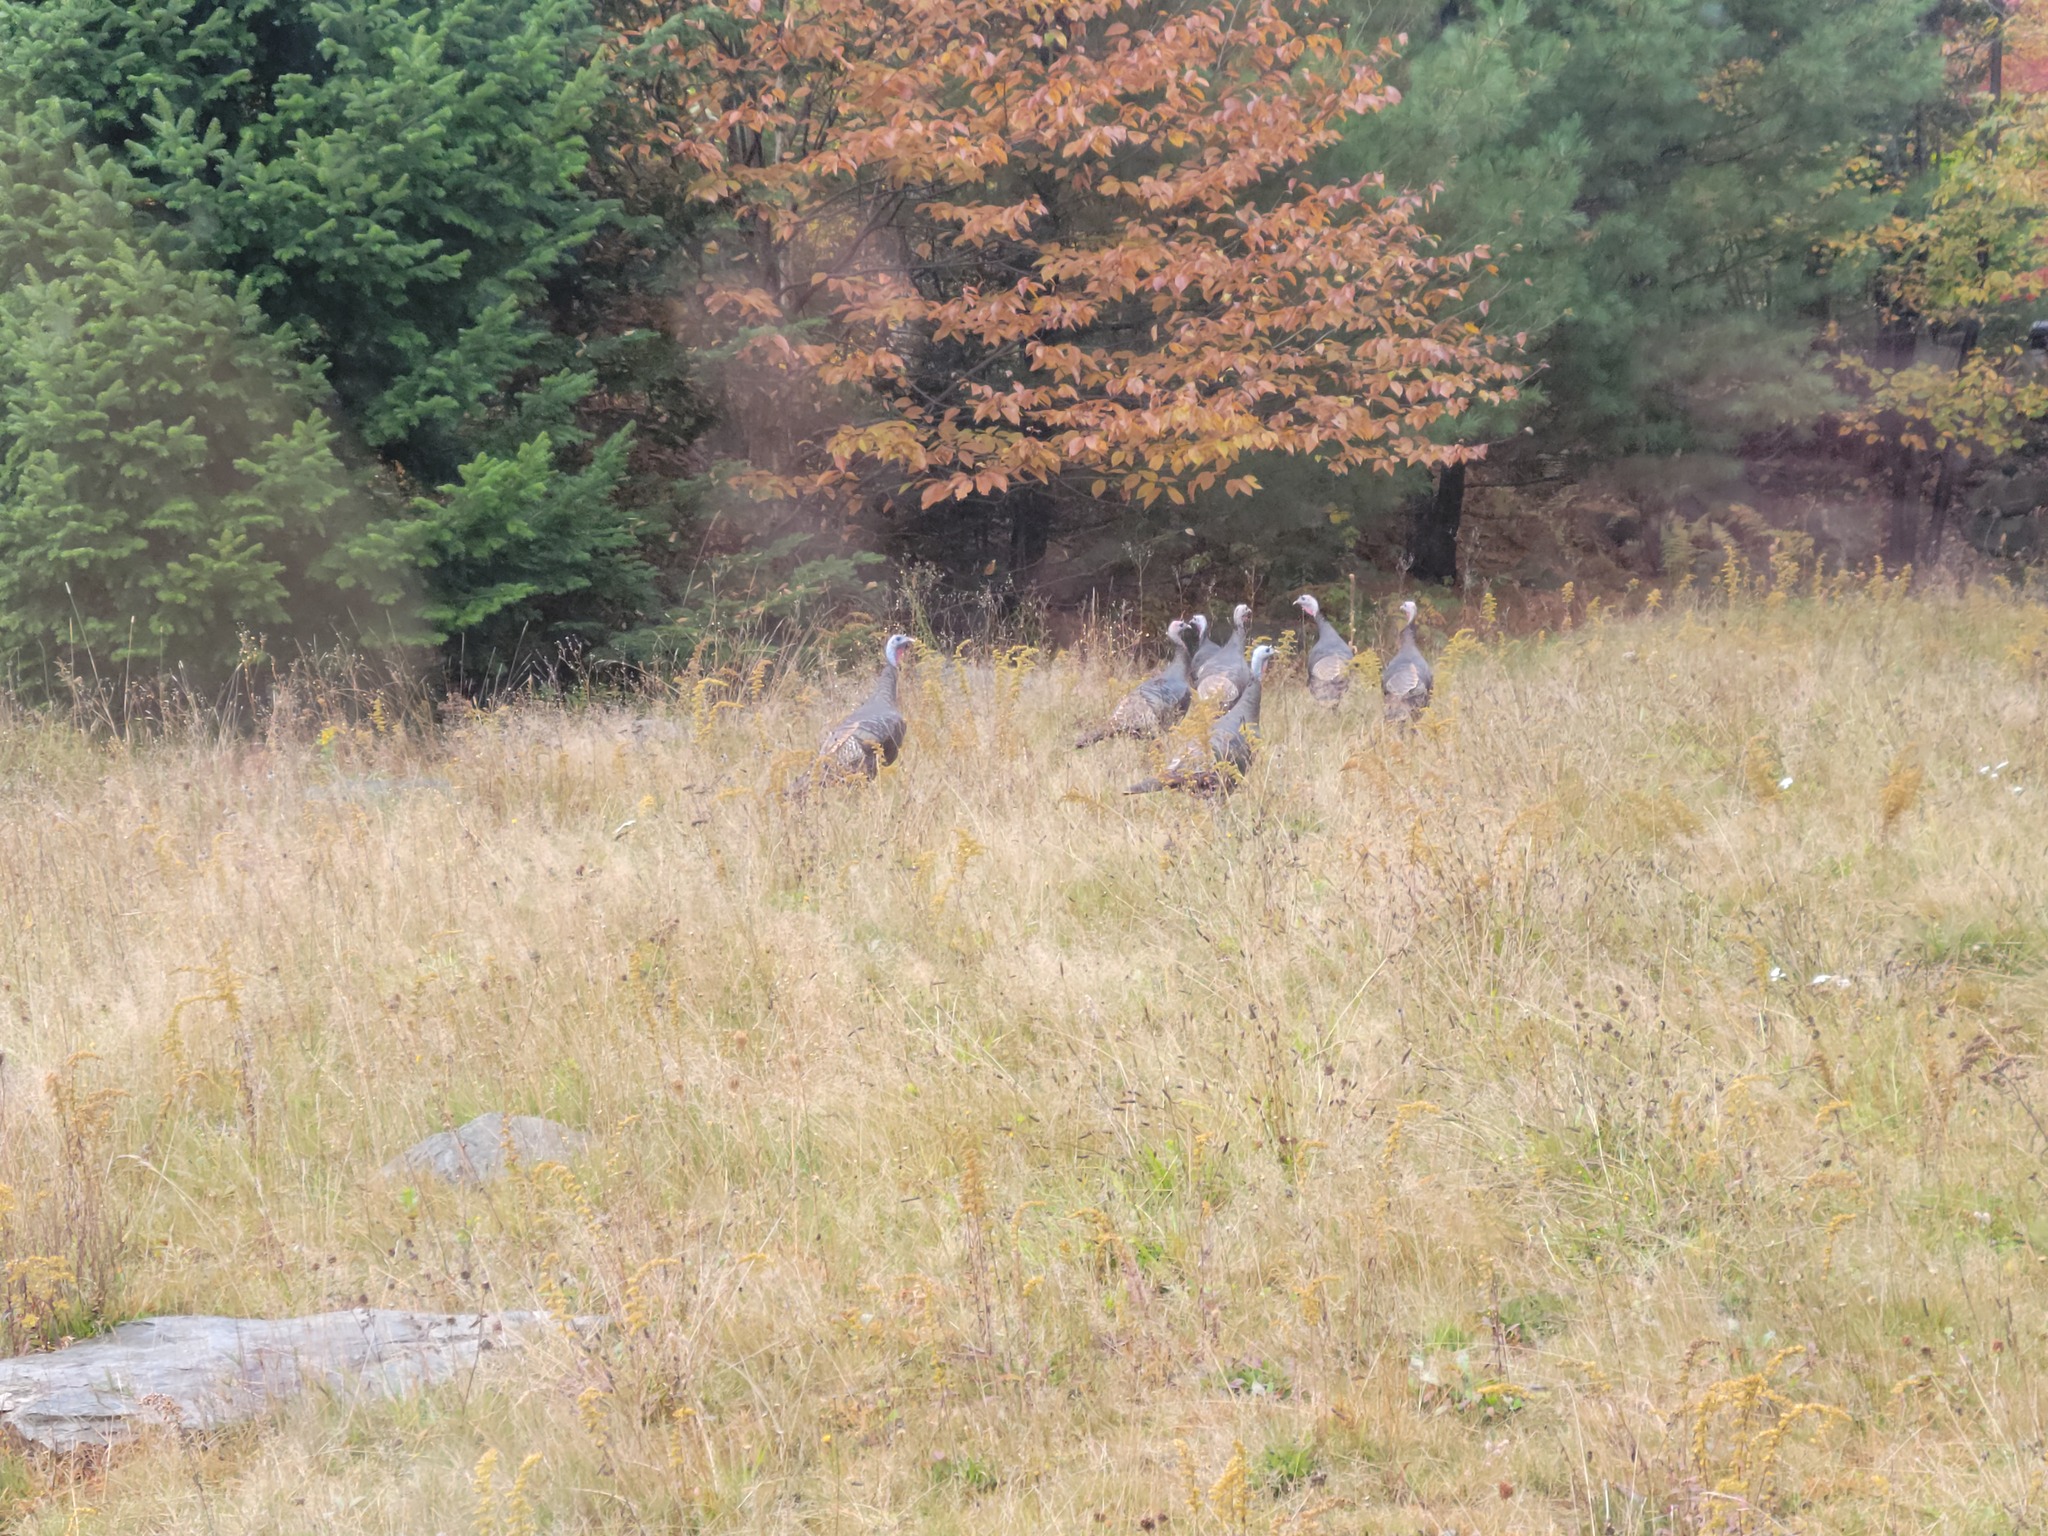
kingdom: Animalia
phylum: Chordata
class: Aves
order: Galliformes
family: Phasianidae
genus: Meleagris
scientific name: Meleagris gallopavo
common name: Wild turkey
